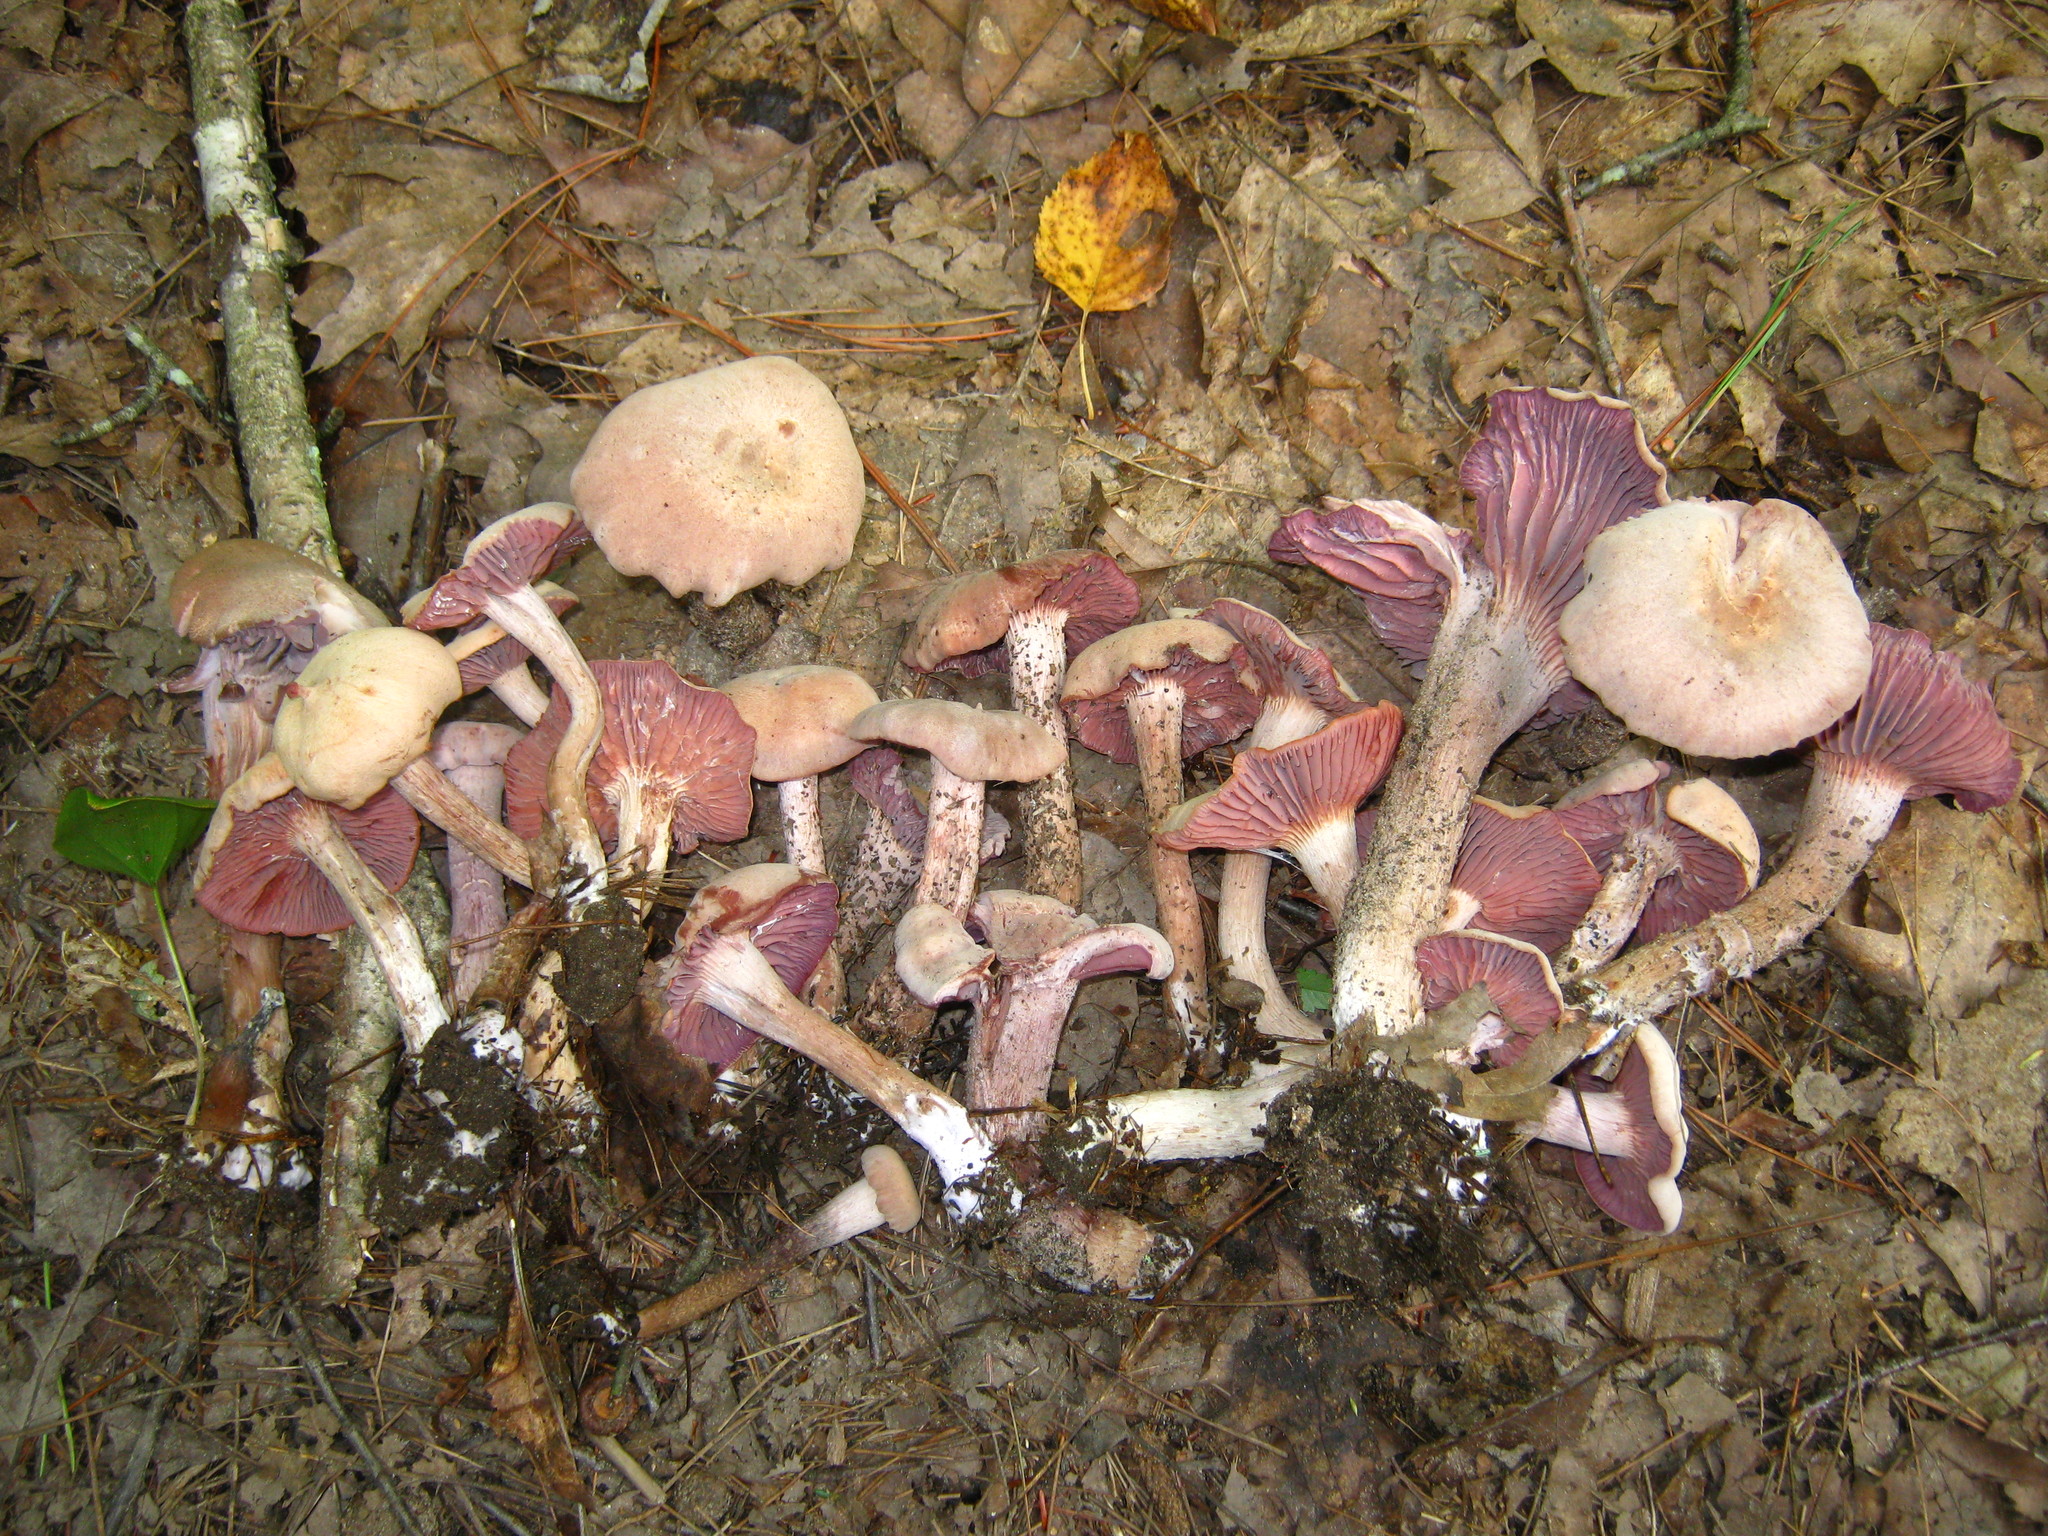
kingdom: Fungi
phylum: Basidiomycota
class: Agaricomycetes
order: Agaricales
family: Hydnangiaceae
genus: Laccaria
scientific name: Laccaria ochropurpurea
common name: Purple laccaria
